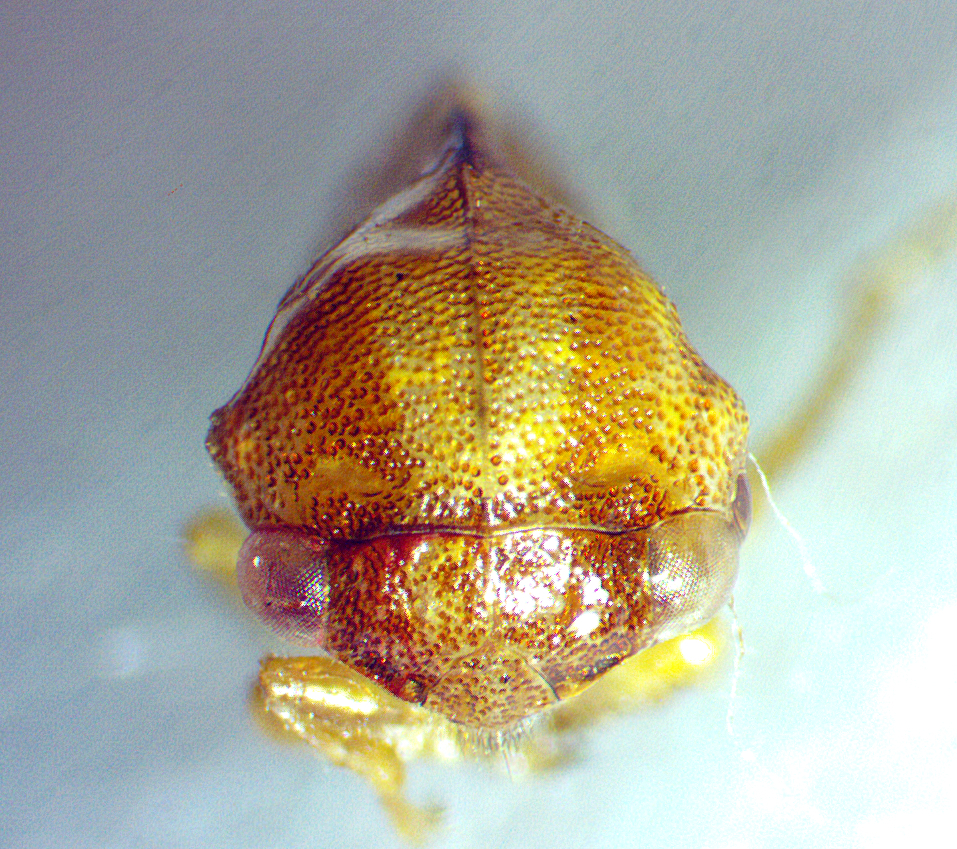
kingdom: Animalia
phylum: Arthropoda
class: Insecta
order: Hemiptera
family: Membracidae
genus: Cyrtolobus
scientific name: Cyrtolobus togatus
